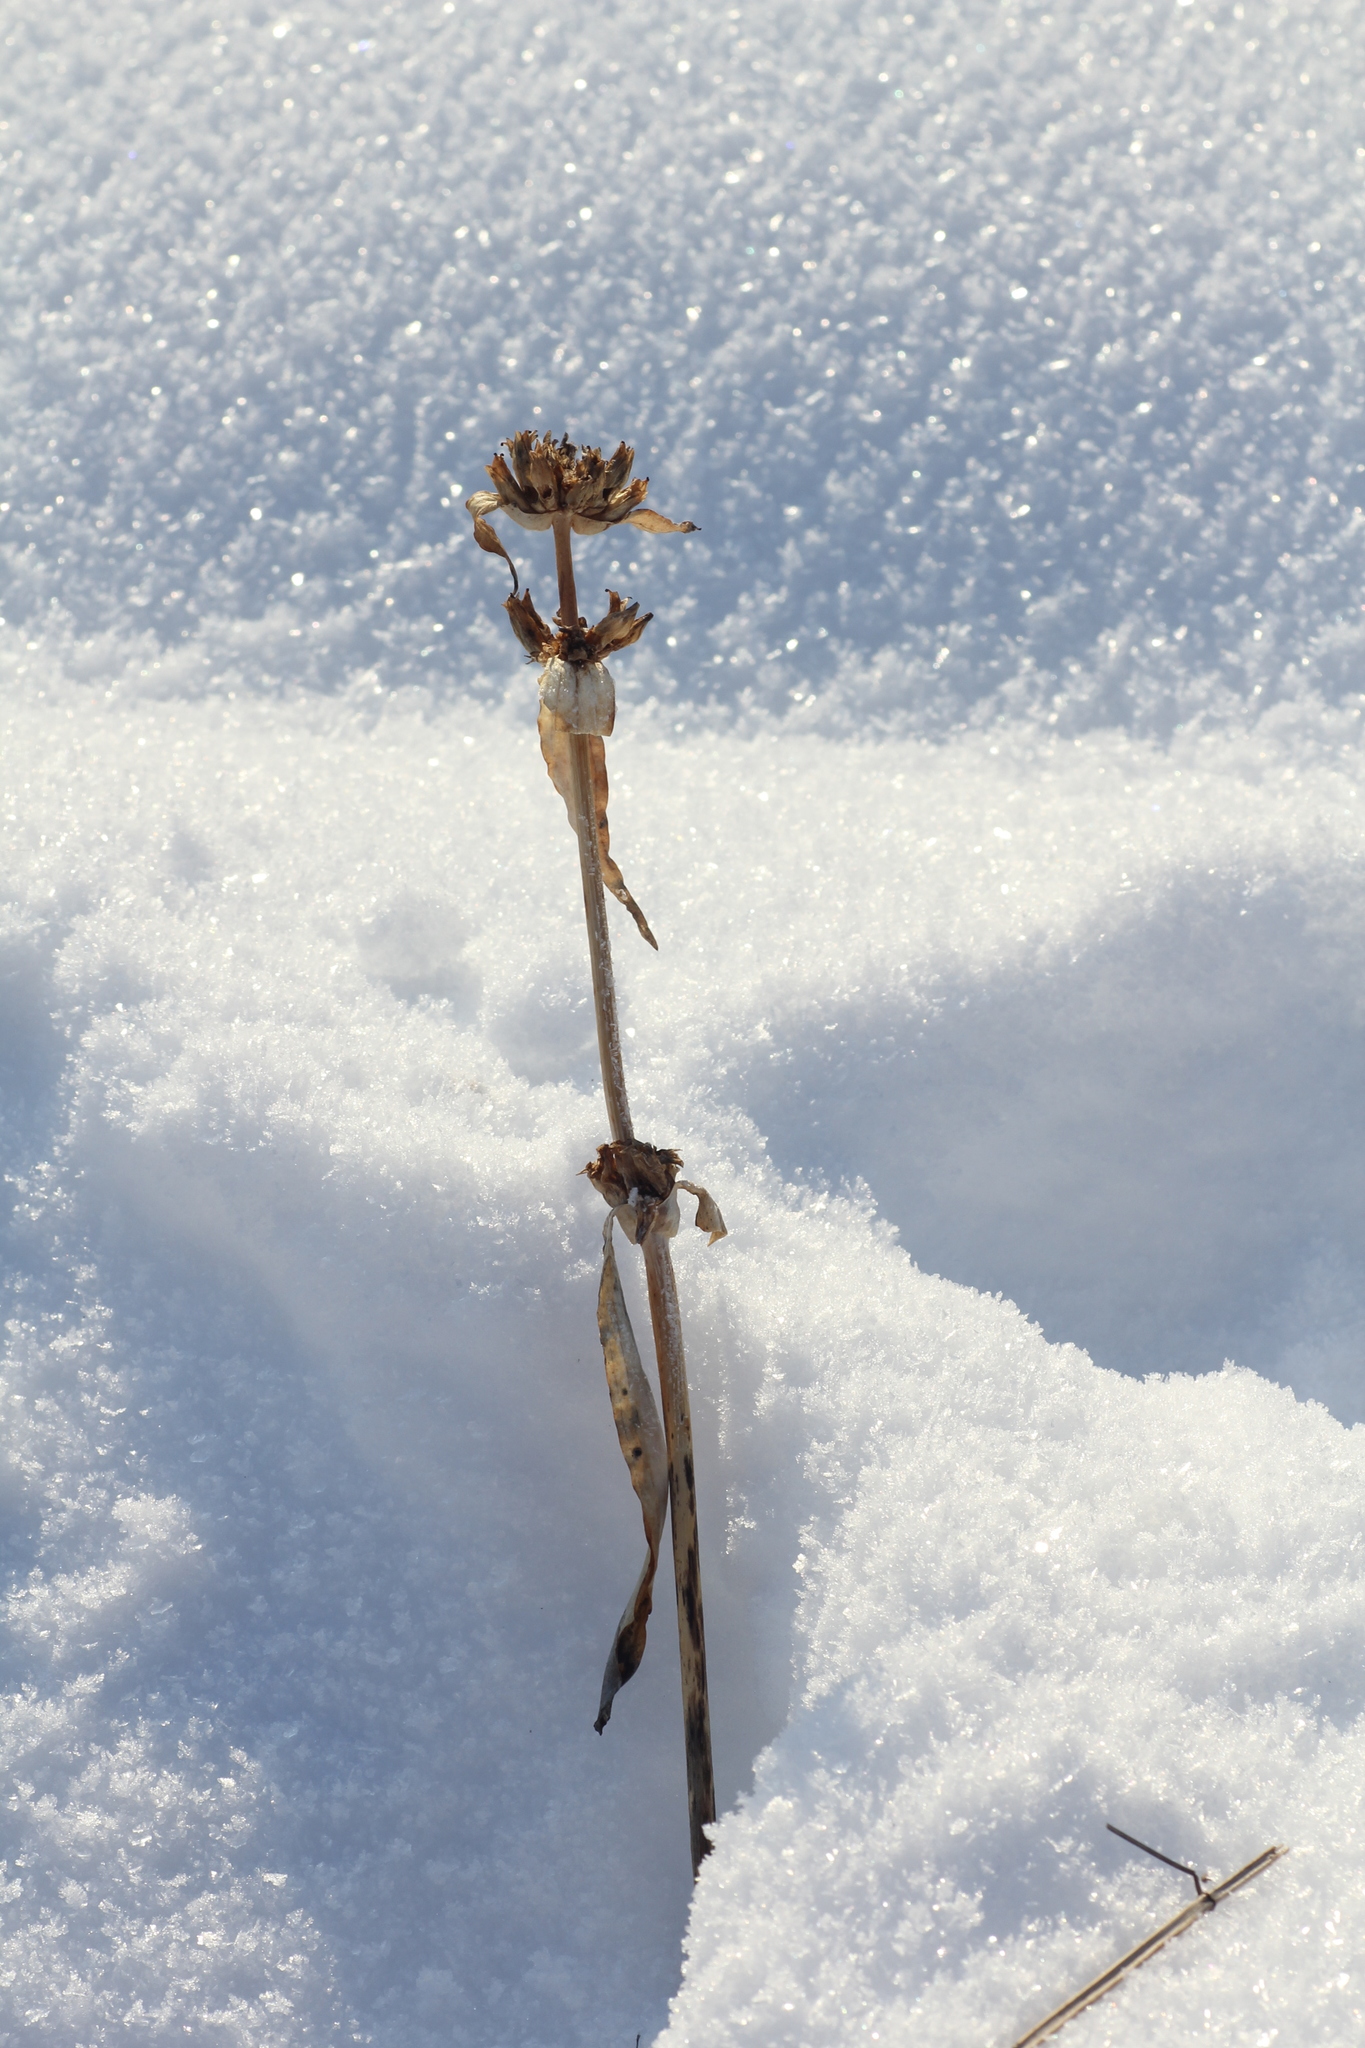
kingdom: Plantae
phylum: Tracheophyta
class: Magnoliopsida
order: Gentianales
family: Gentianaceae
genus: Gentiana
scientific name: Gentiana macrophylla
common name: Large-leaf gentian
